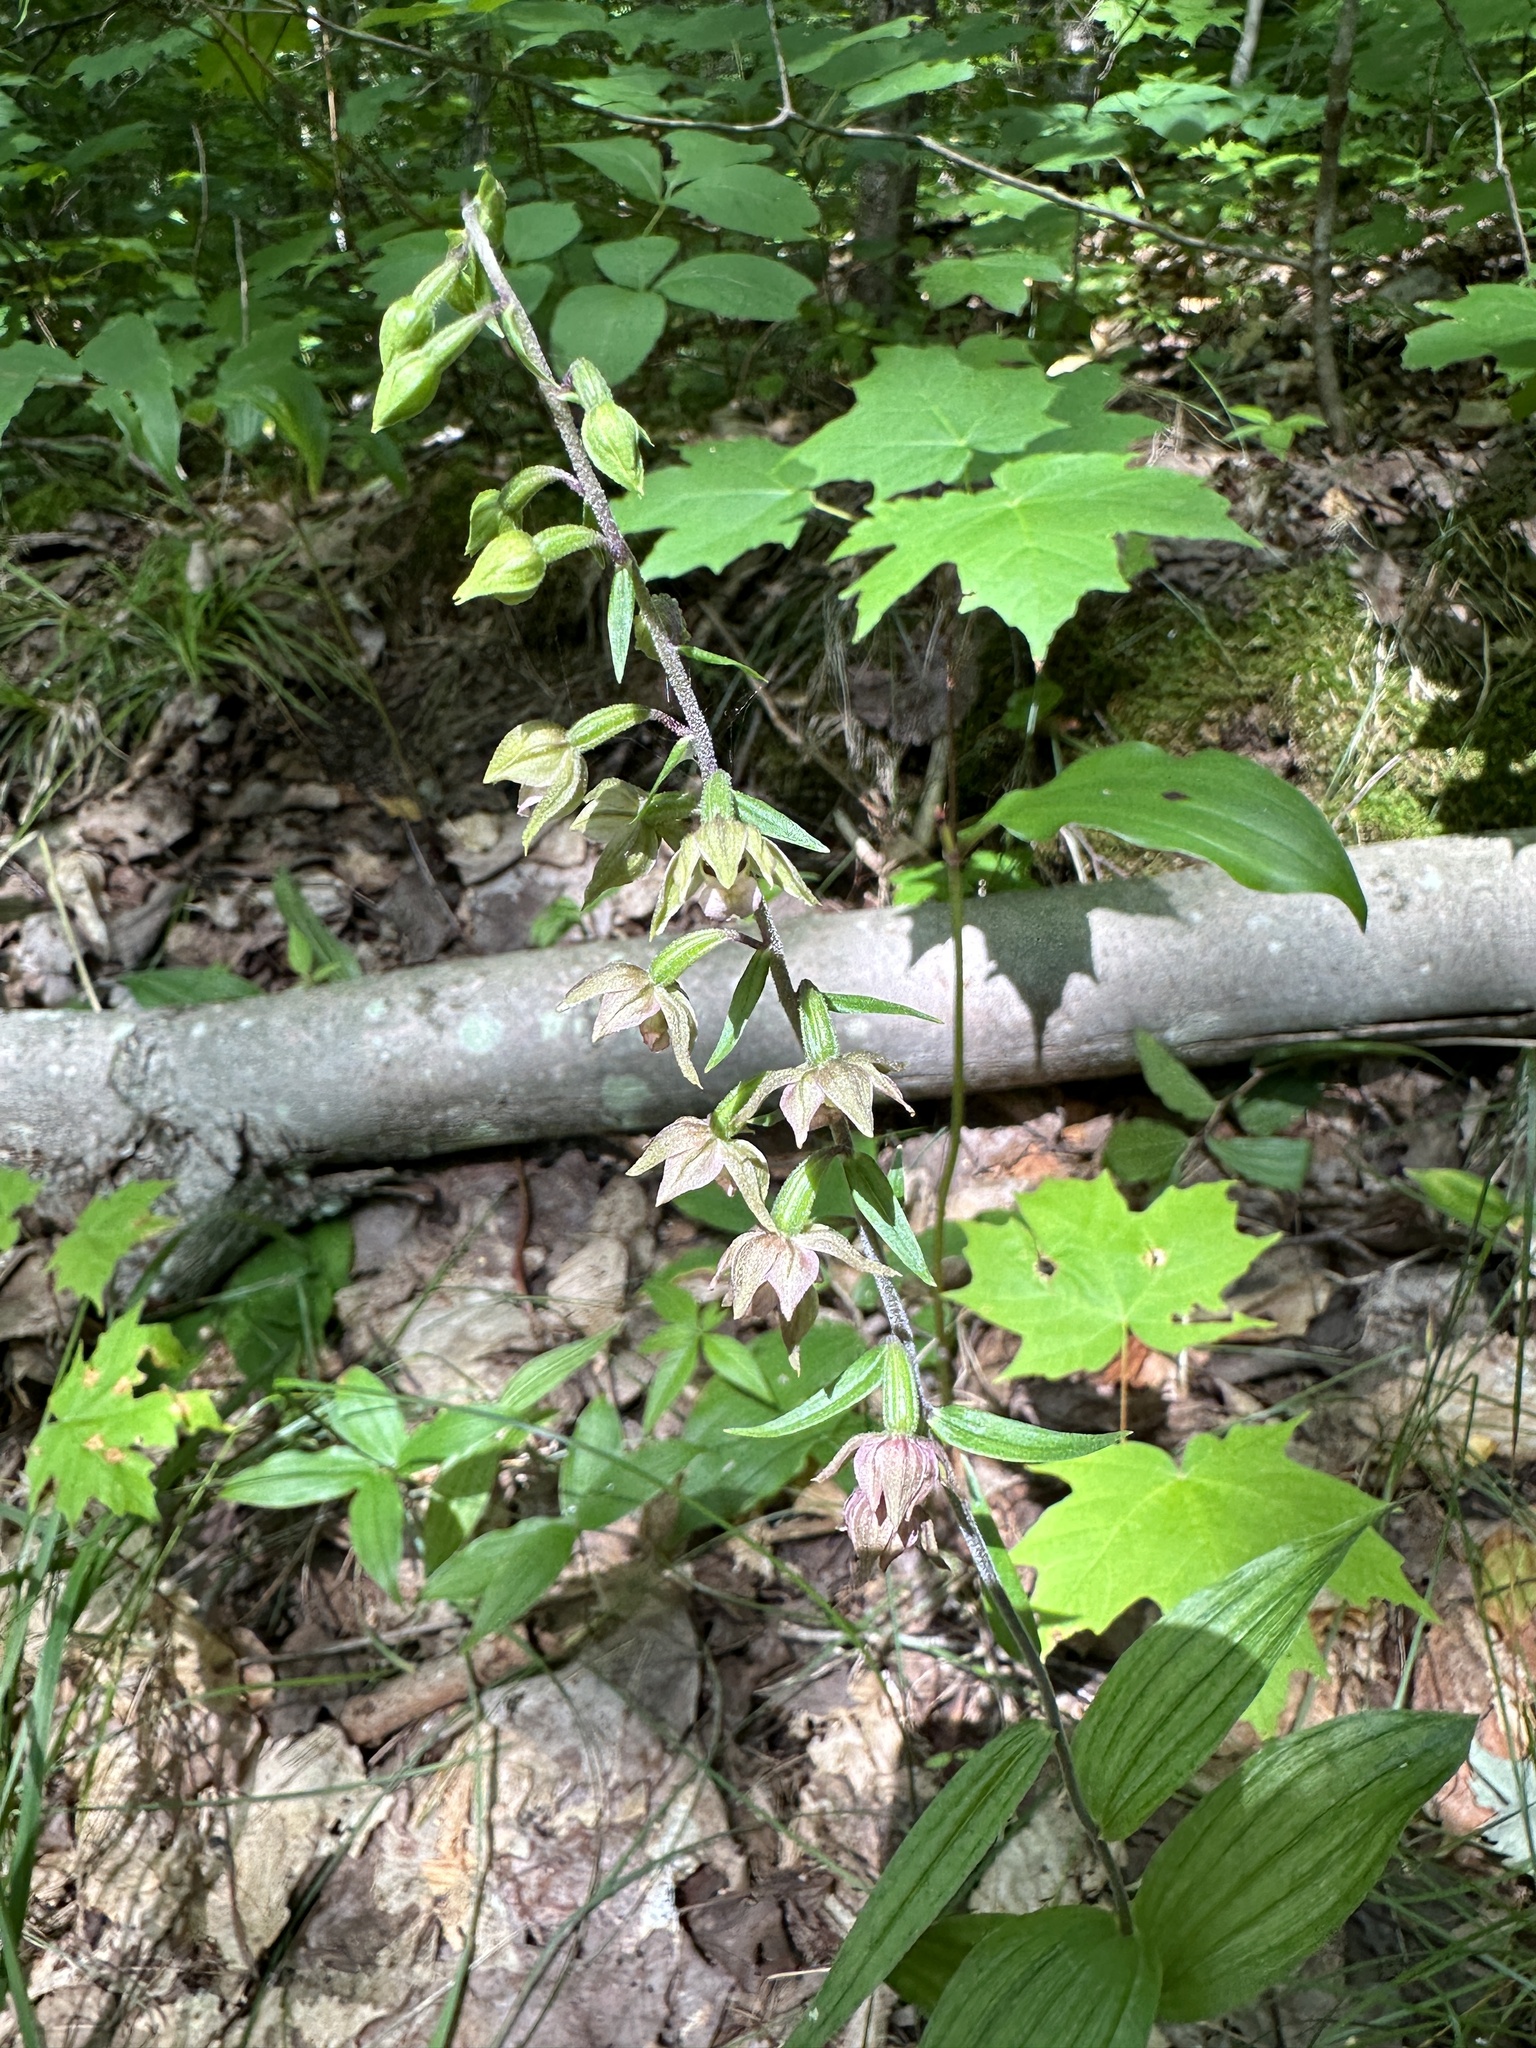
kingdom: Plantae
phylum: Tracheophyta
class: Liliopsida
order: Asparagales
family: Orchidaceae
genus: Epipactis
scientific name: Epipactis helleborine
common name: Broad-leaved helleborine
